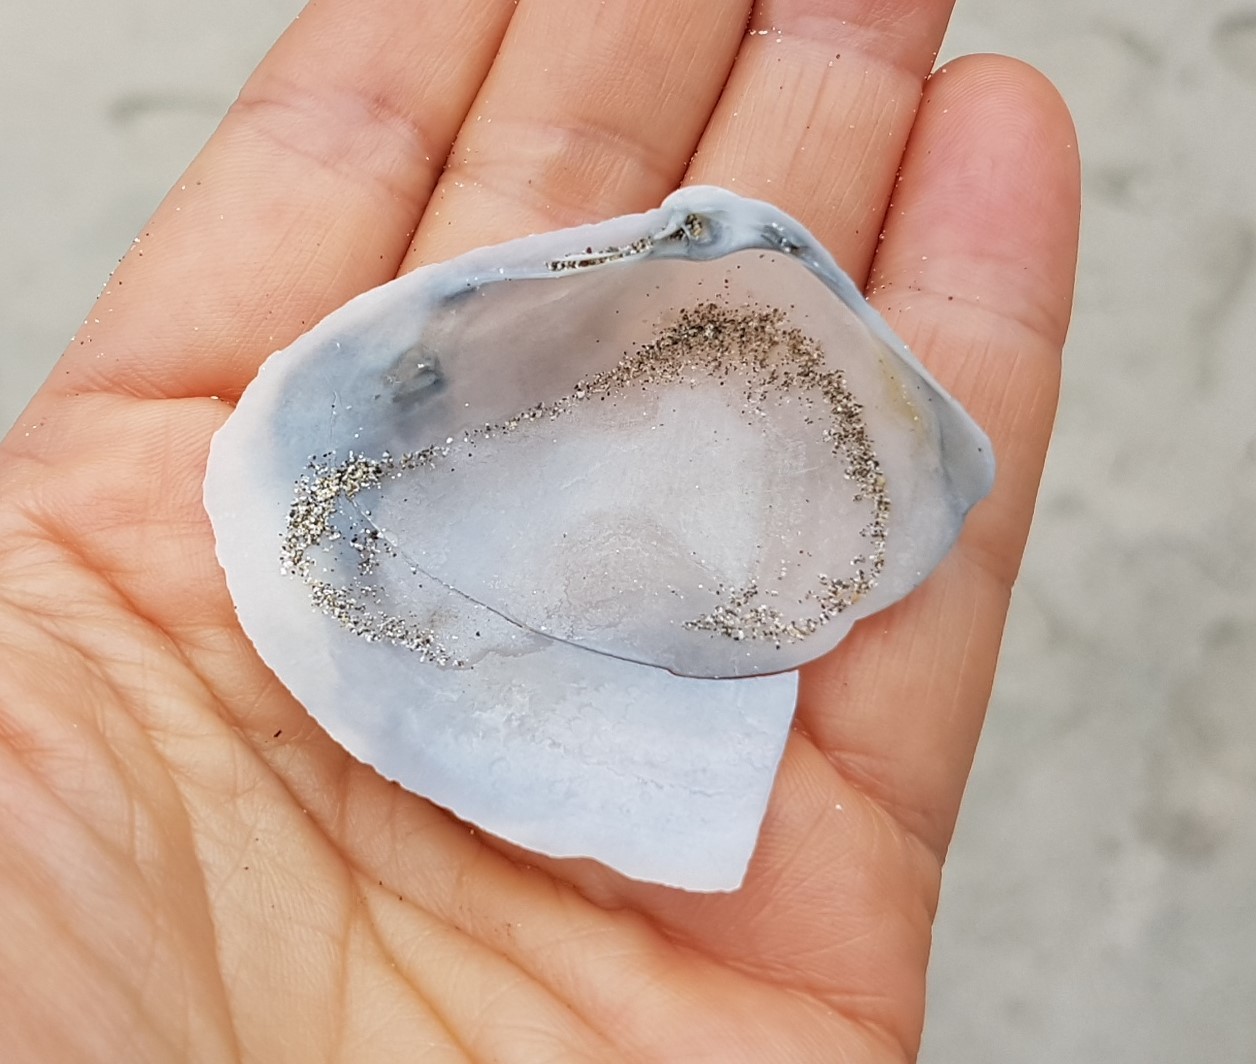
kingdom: Animalia
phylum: Mollusca
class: Bivalvia
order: Venerida
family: Mactridae
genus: Mactrellona
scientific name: Mactrellona alata
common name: Winged surfclam
